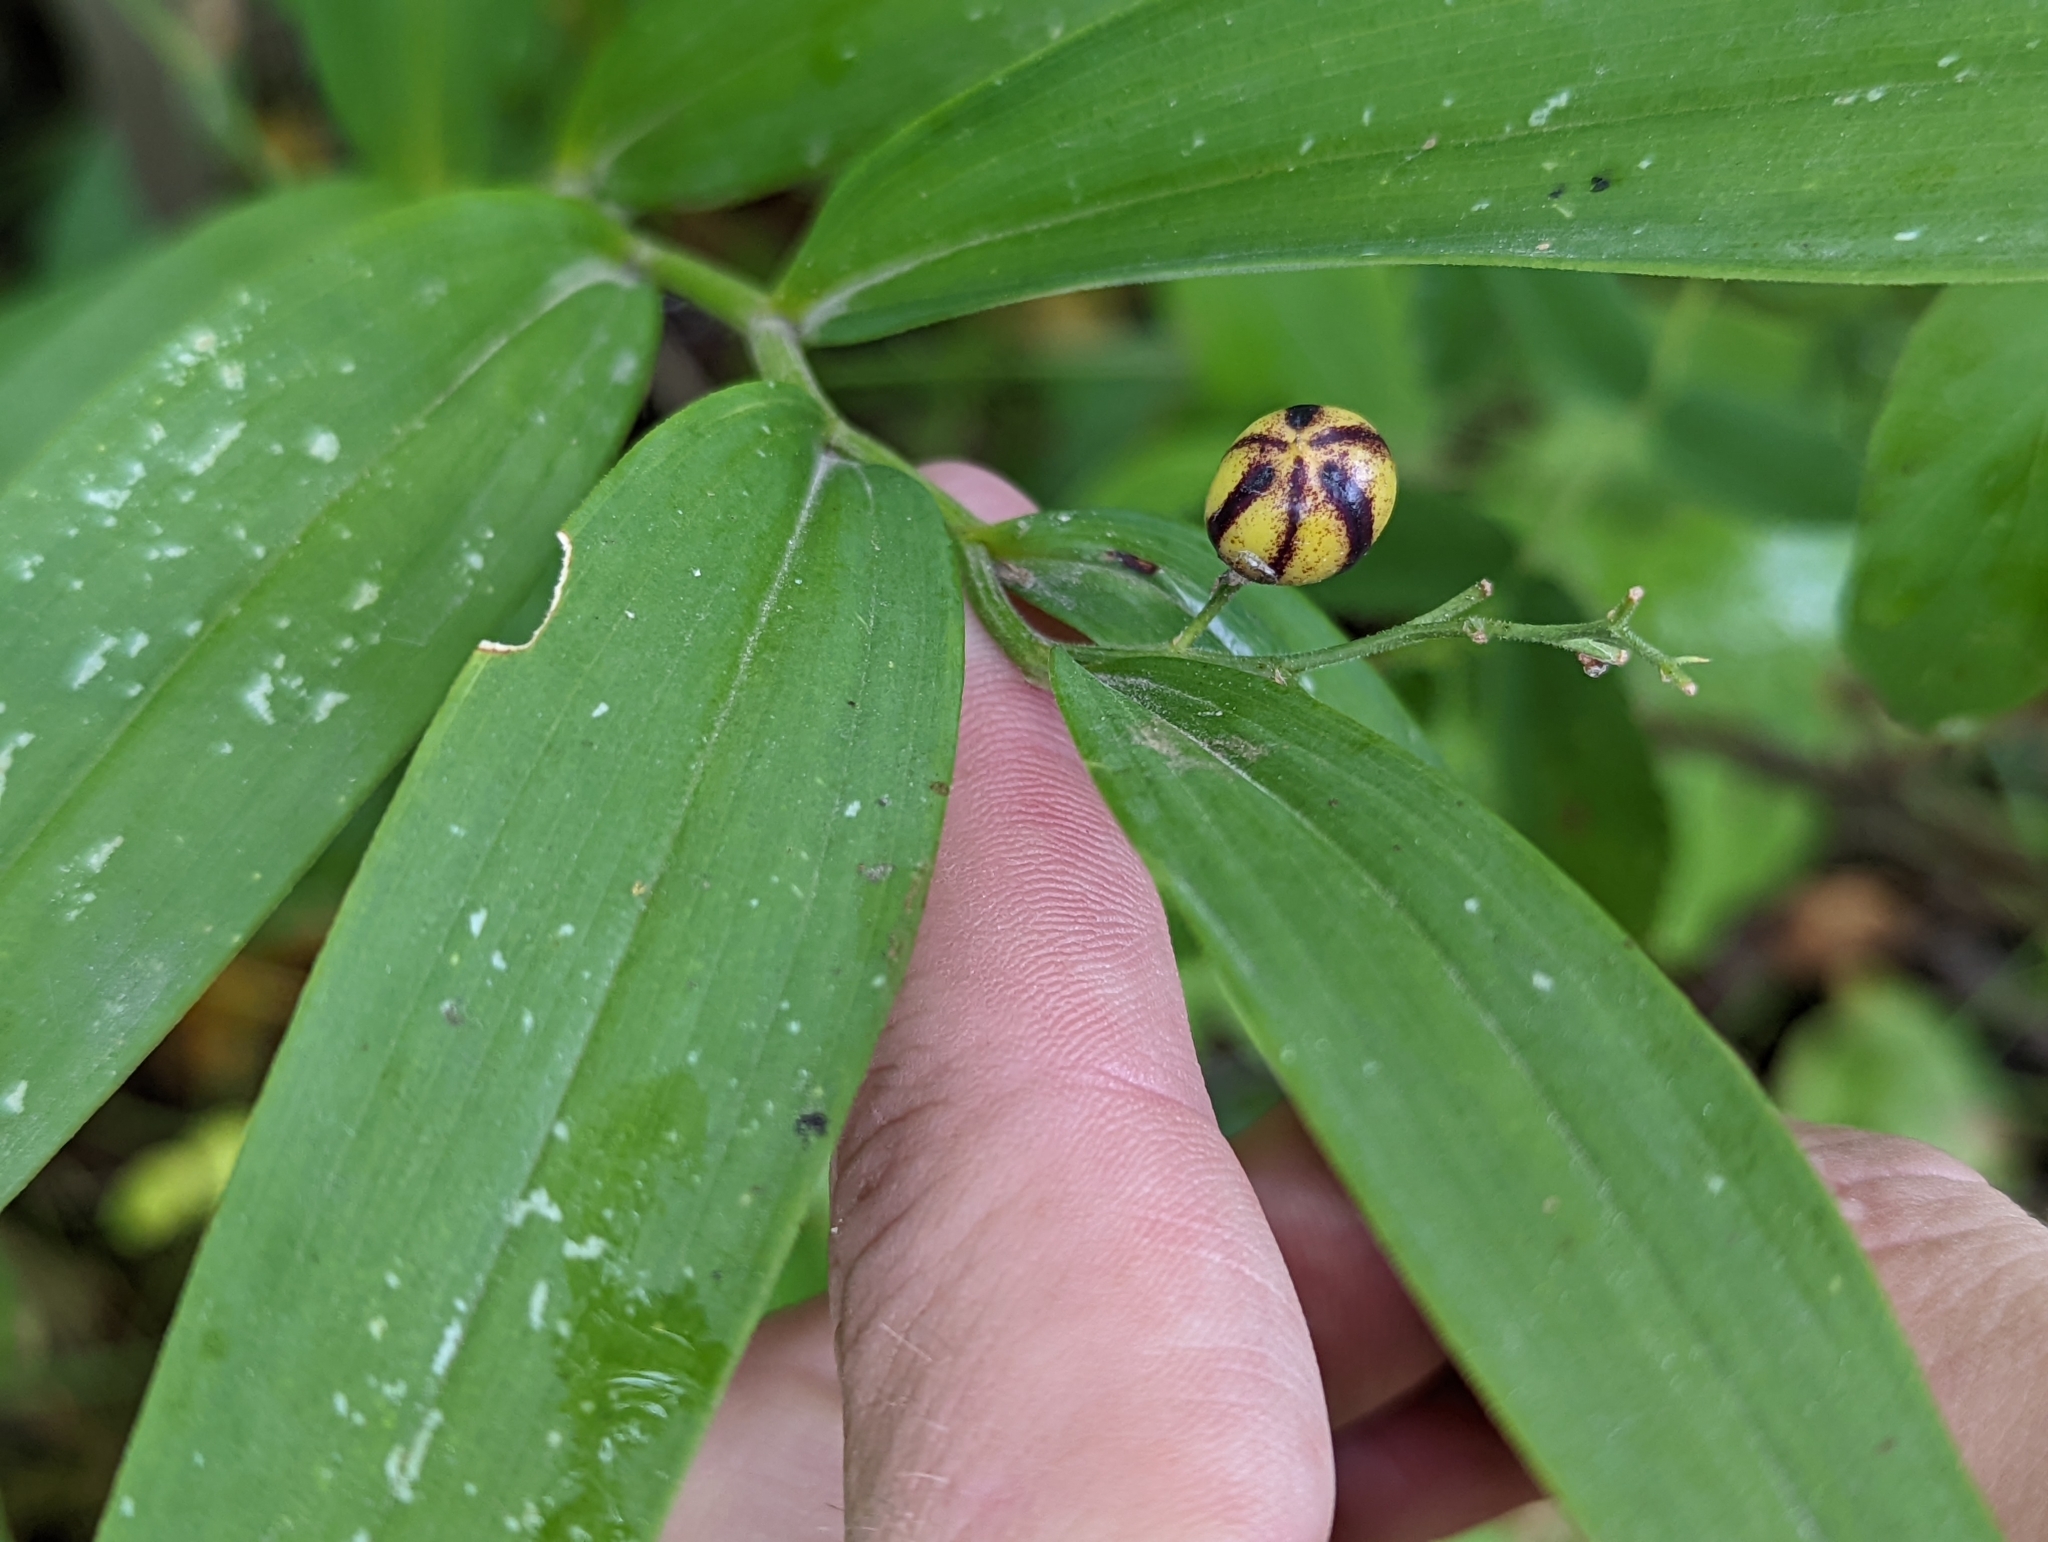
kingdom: Plantae
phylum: Tracheophyta
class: Liliopsida
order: Asparagales
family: Asparagaceae
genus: Maianthemum
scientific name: Maianthemum stellatum
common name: Little false solomon's seal
